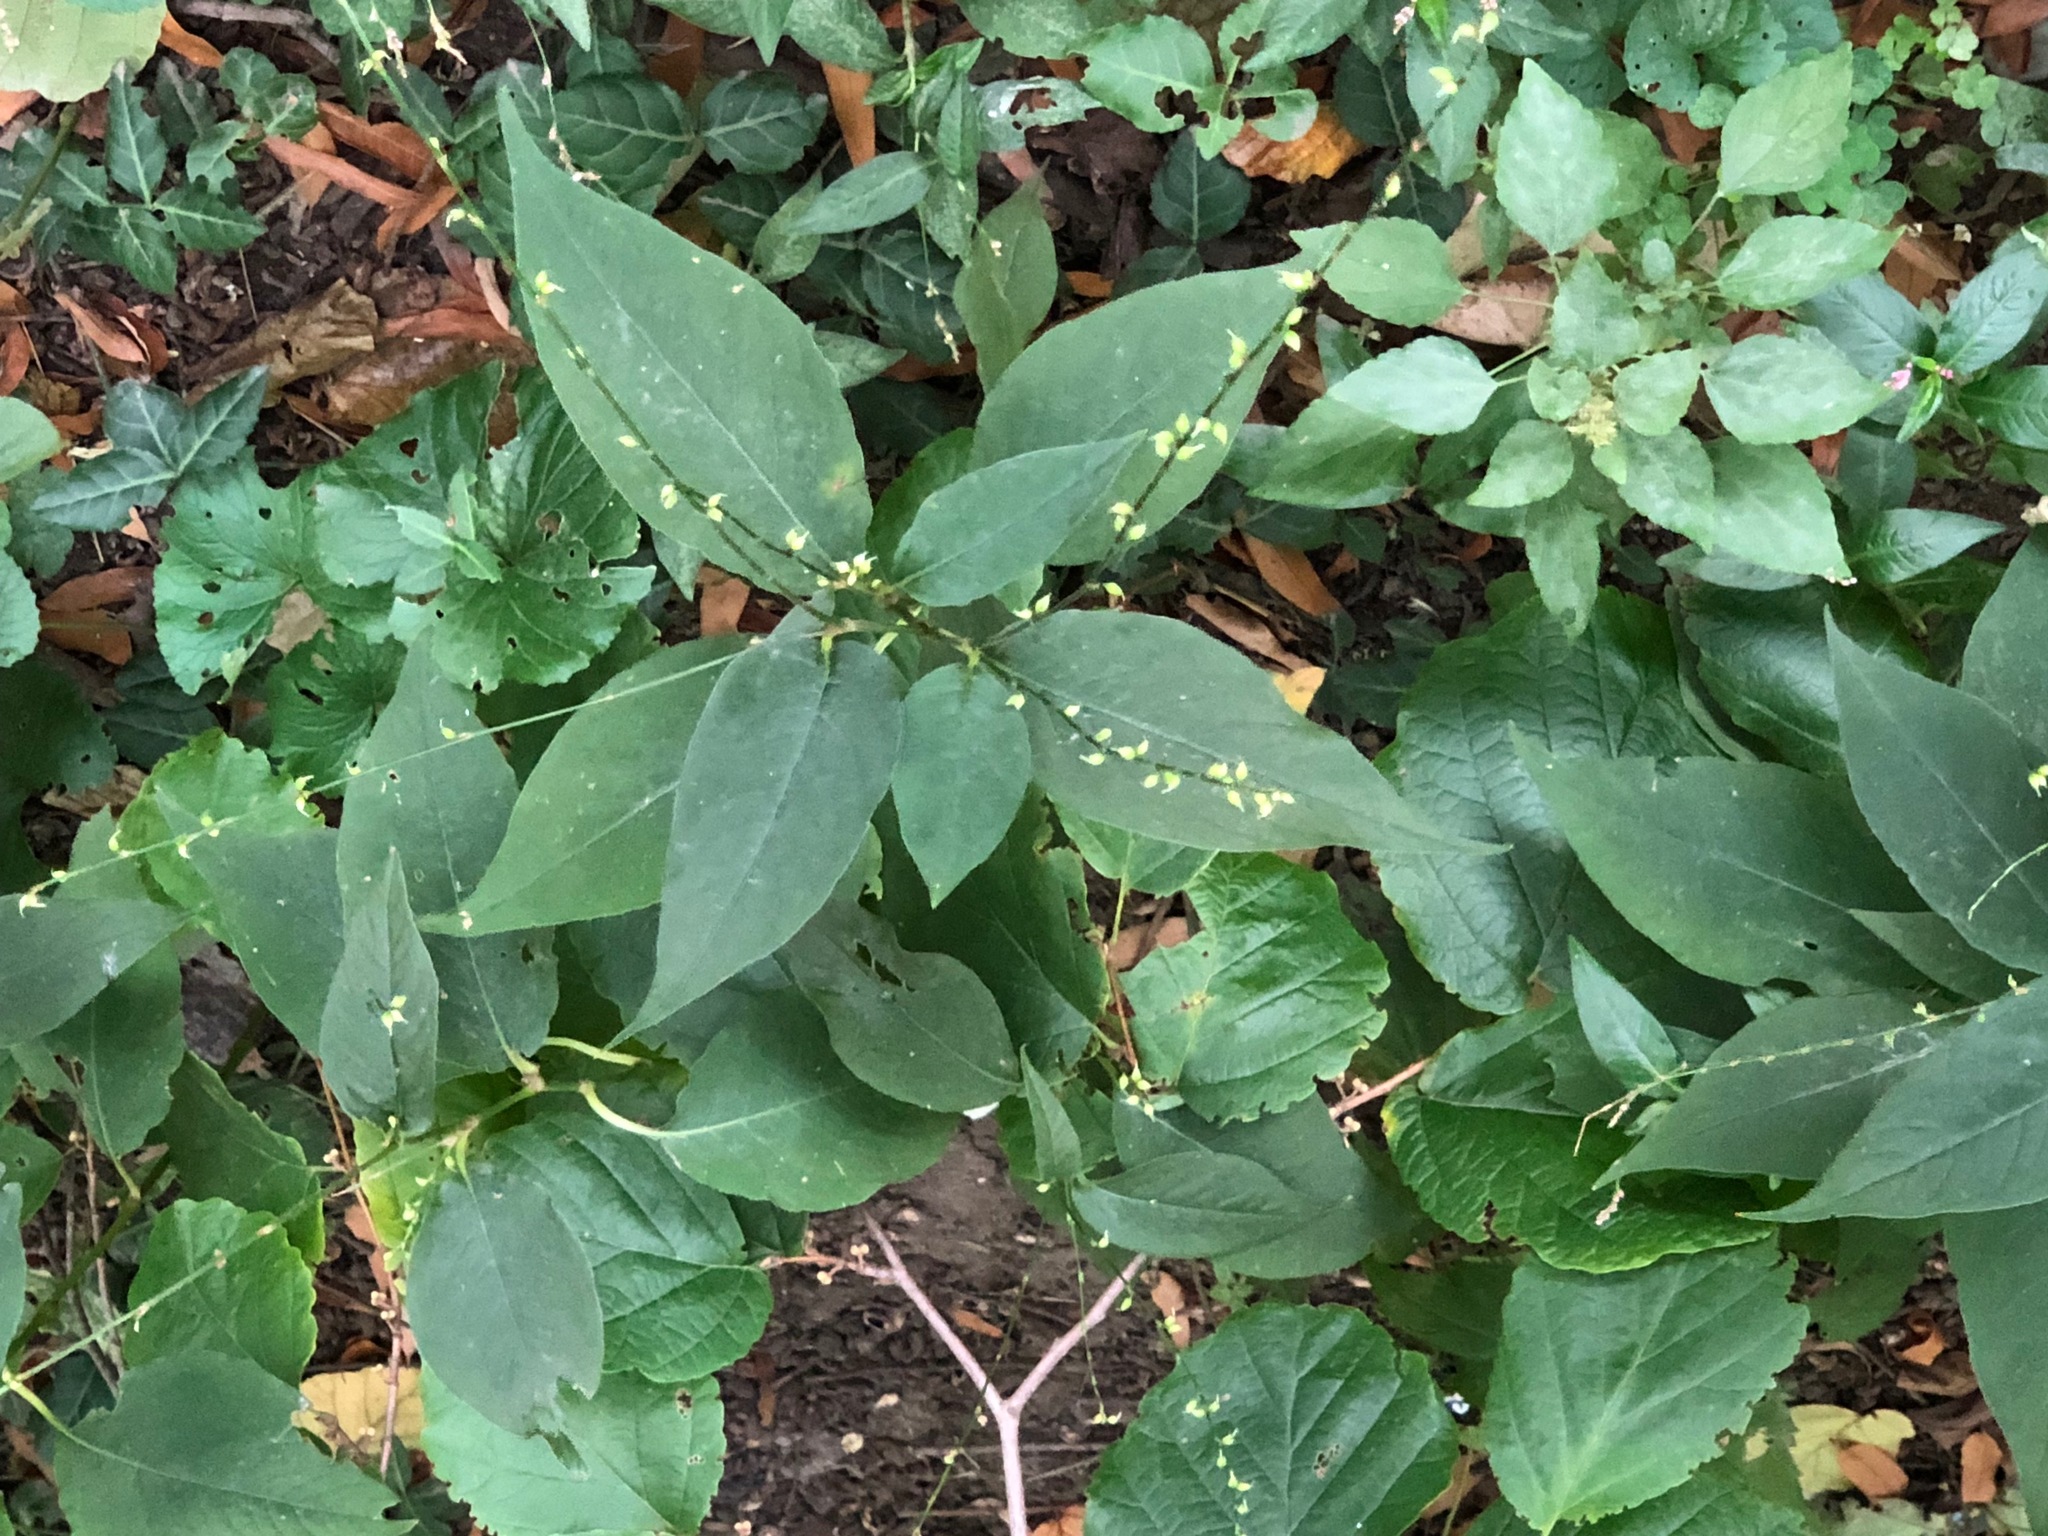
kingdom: Plantae
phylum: Tracheophyta
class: Magnoliopsida
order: Caryophyllales
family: Polygonaceae
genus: Persicaria
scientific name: Persicaria virginiana
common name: Jumpseed
